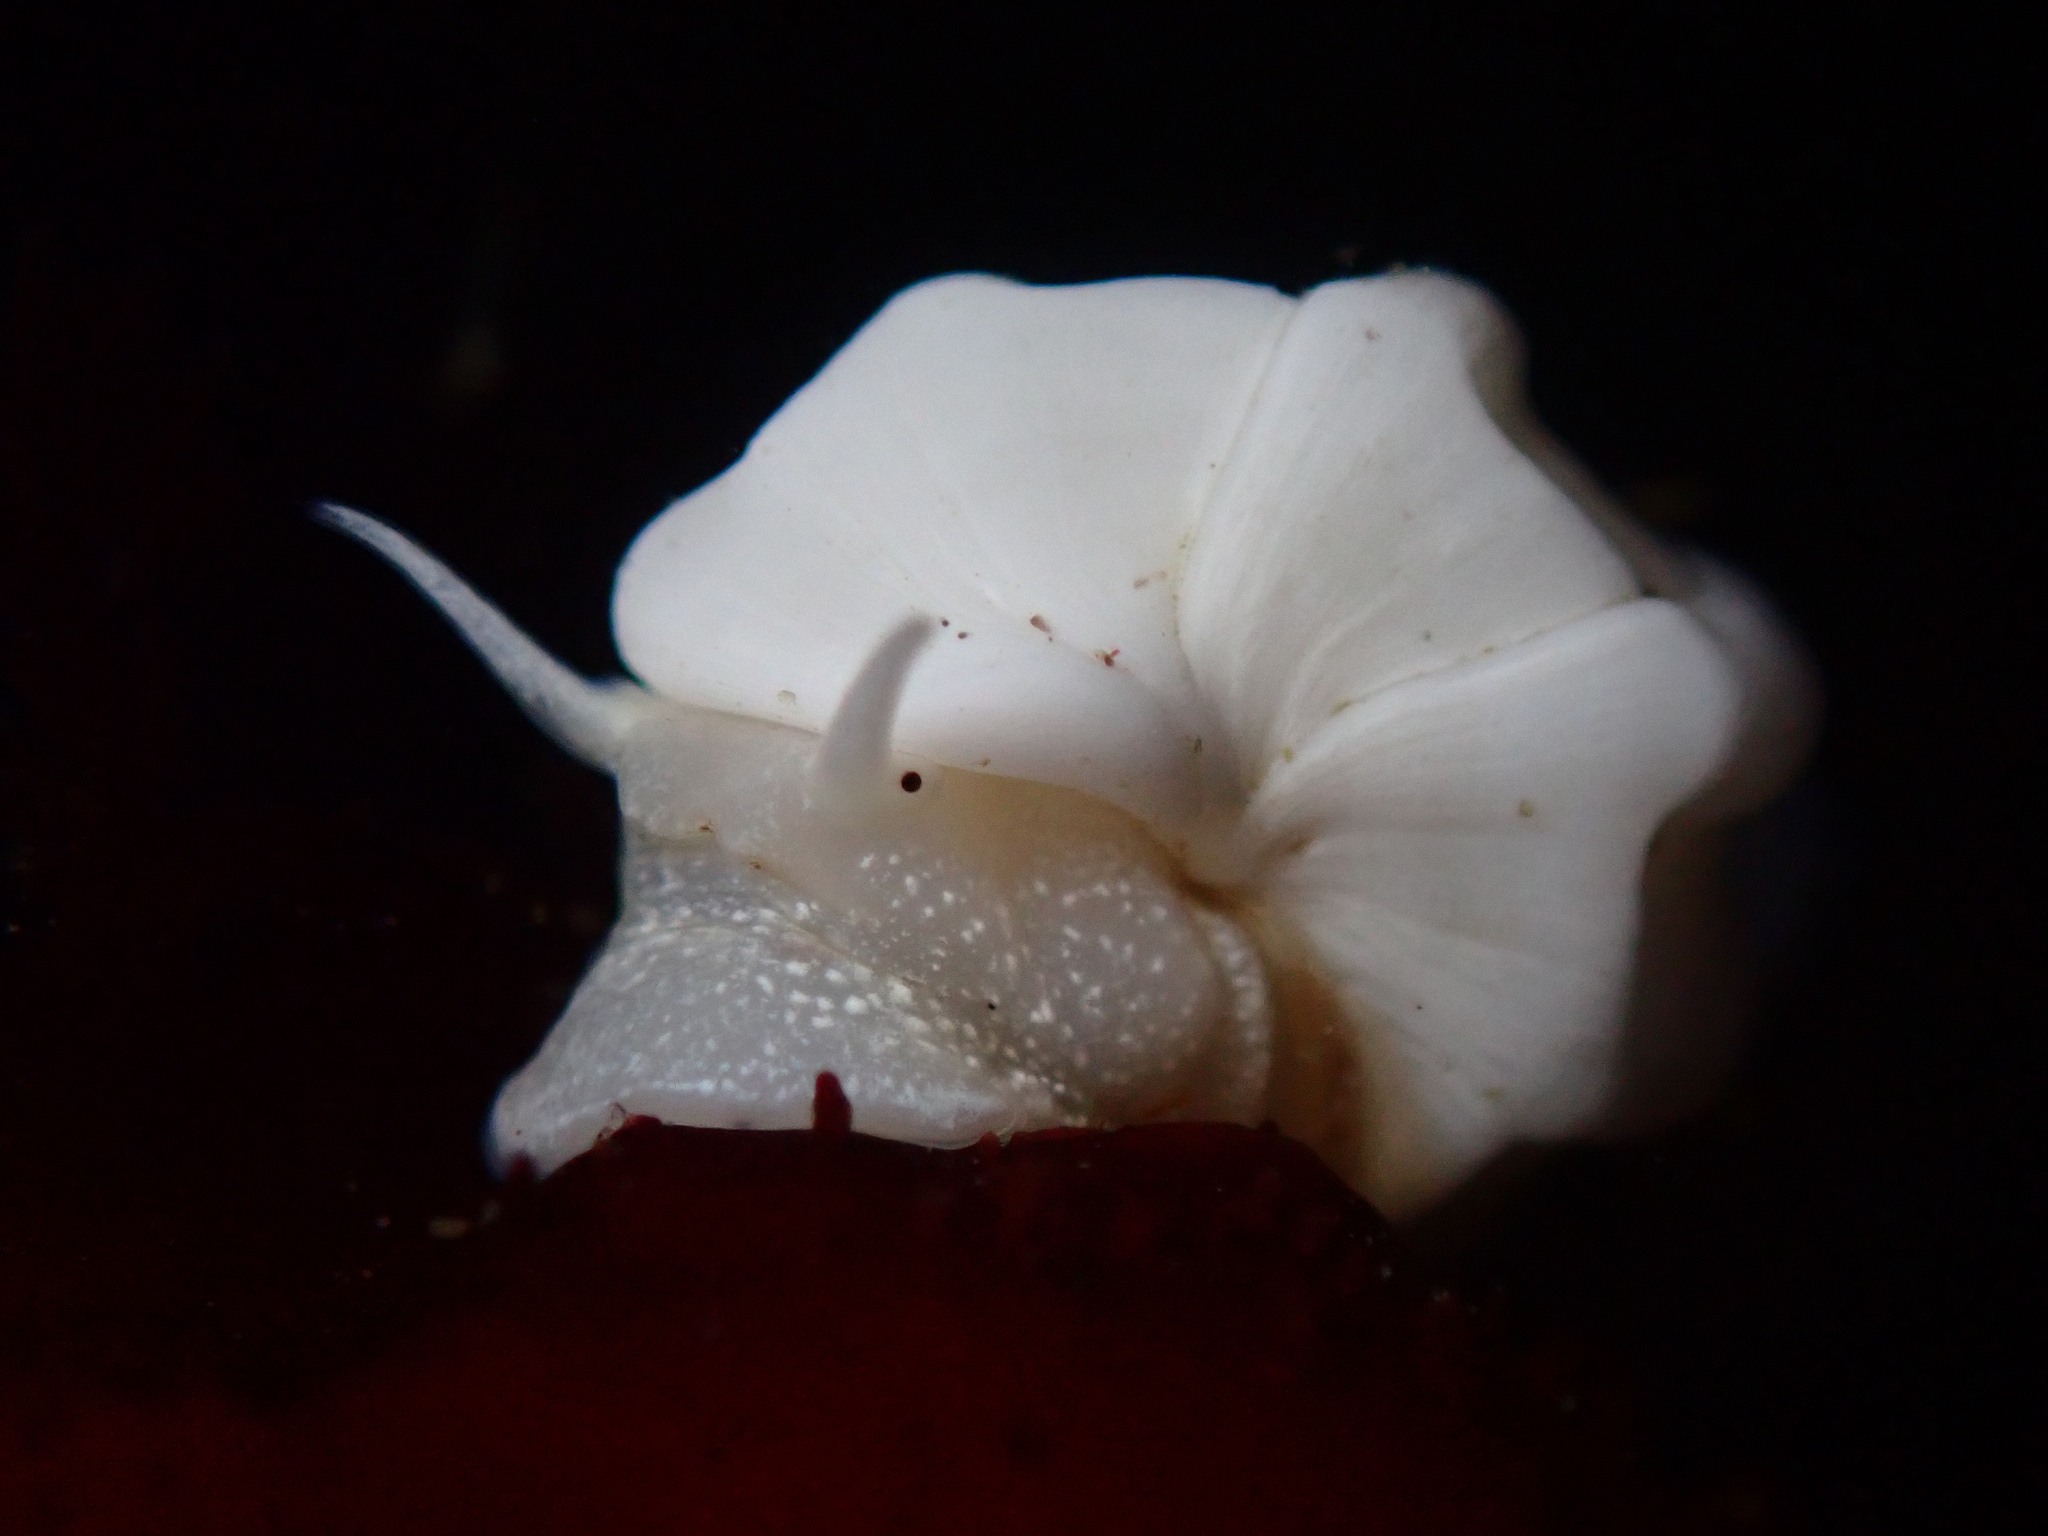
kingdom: Animalia
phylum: Mollusca
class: Gastropoda
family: Epitoniidae
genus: Opalia
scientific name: Opalia wroblewskyi
